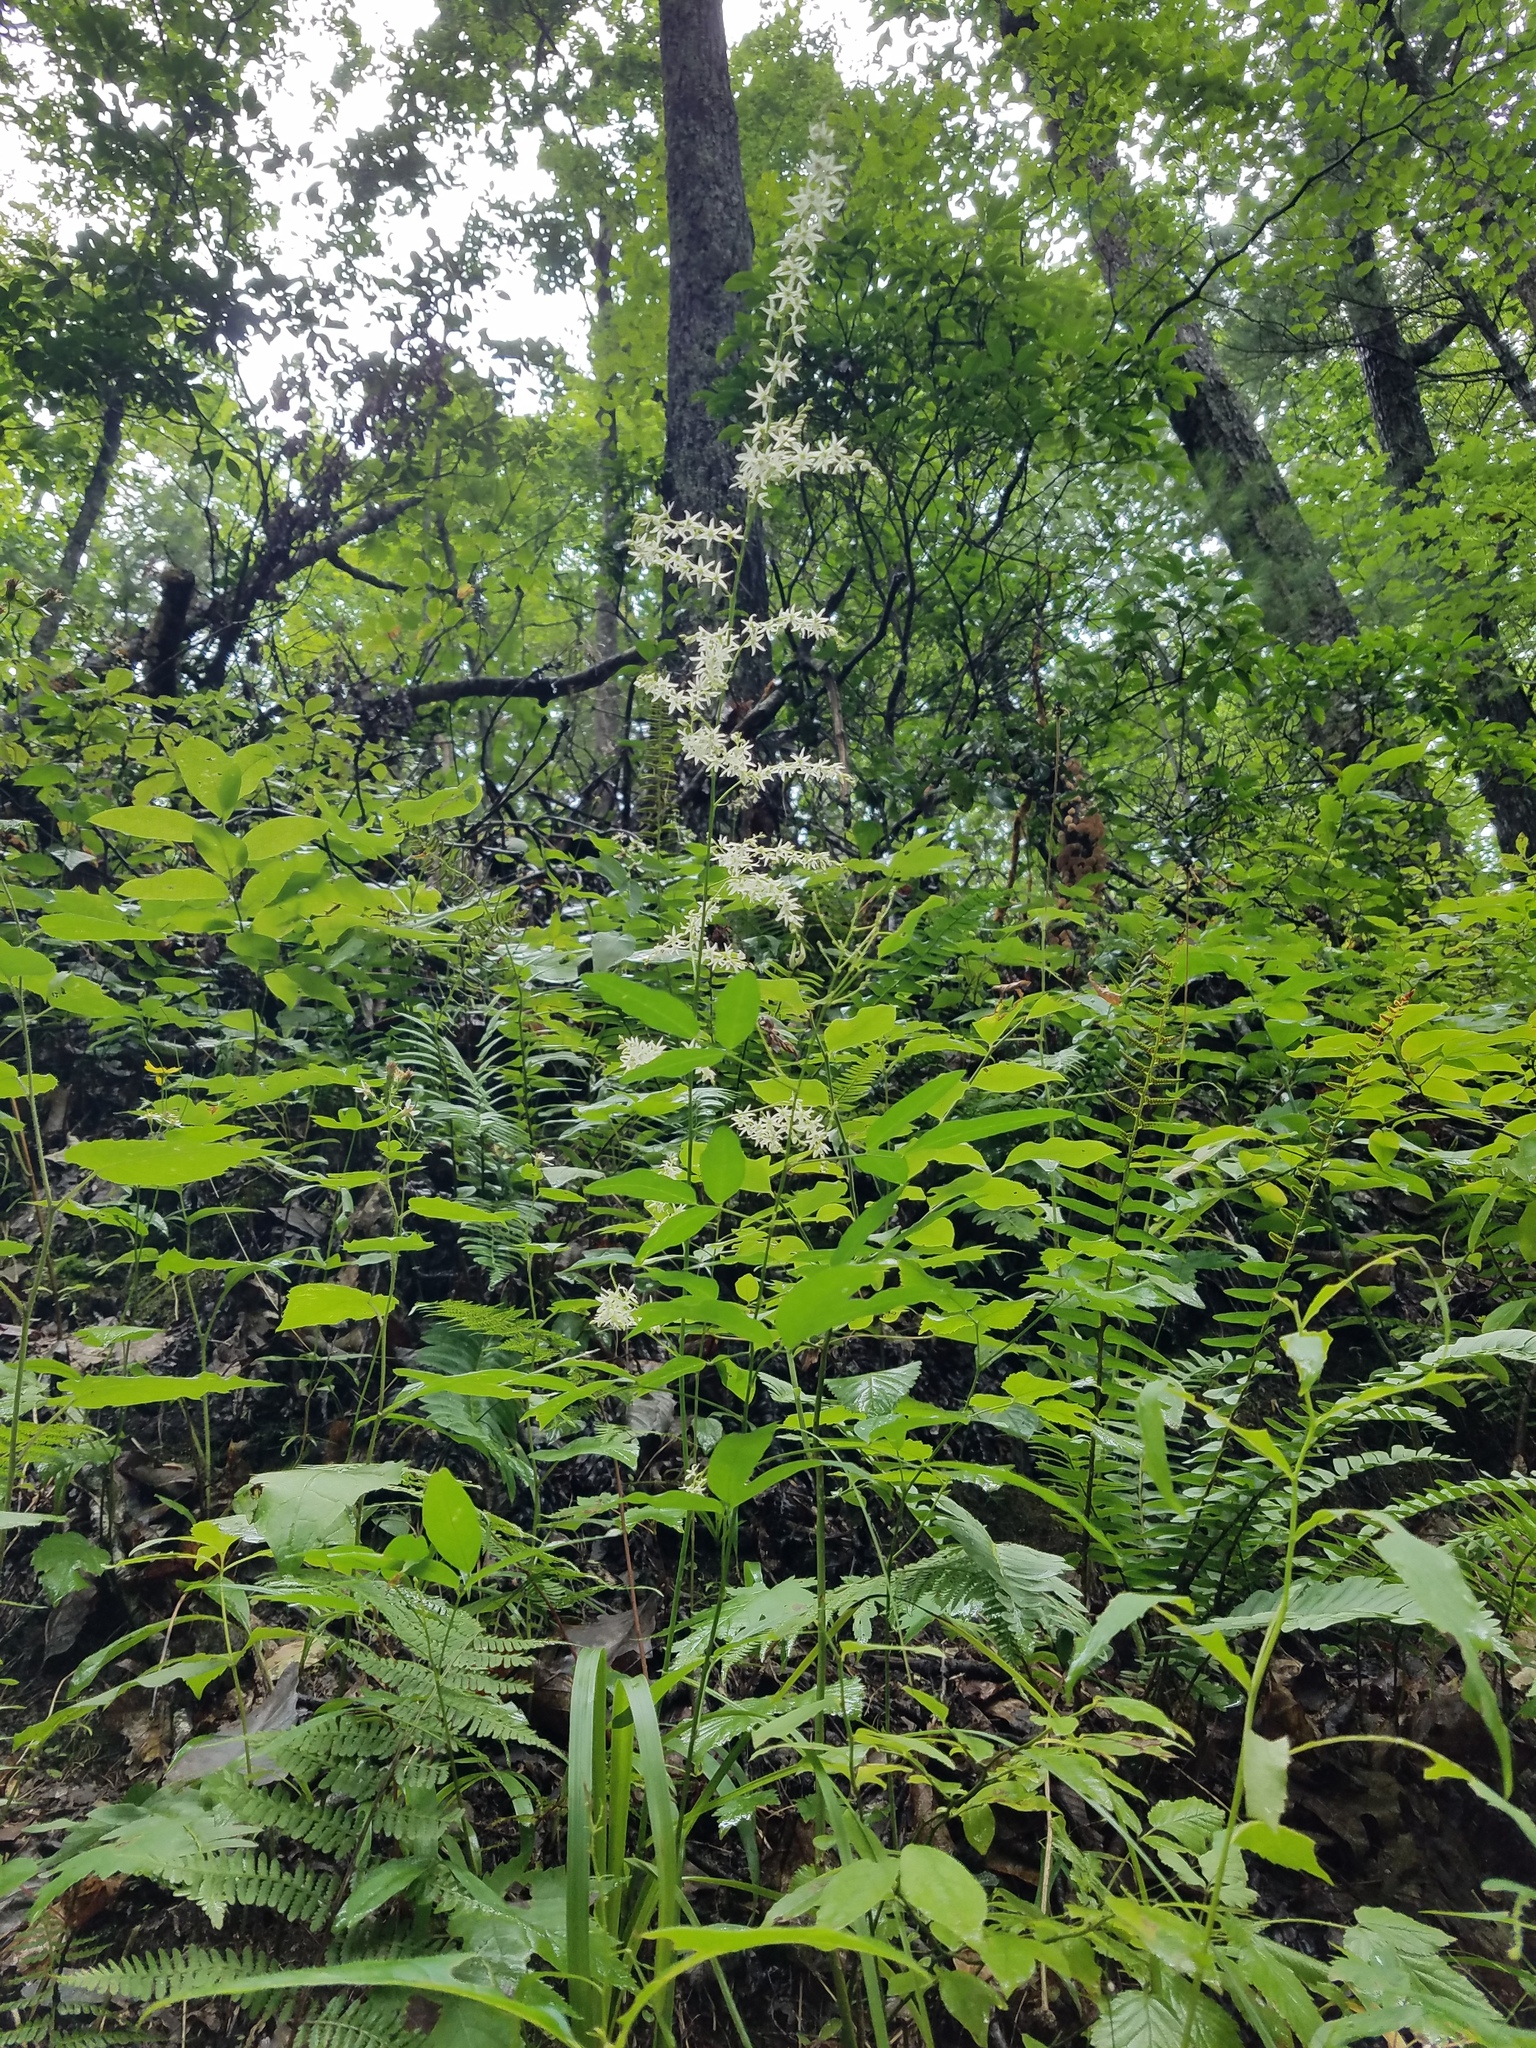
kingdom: Plantae
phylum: Tracheophyta
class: Liliopsida
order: Liliales
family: Melanthiaceae
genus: Stenanthium
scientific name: Stenanthium gramineum
